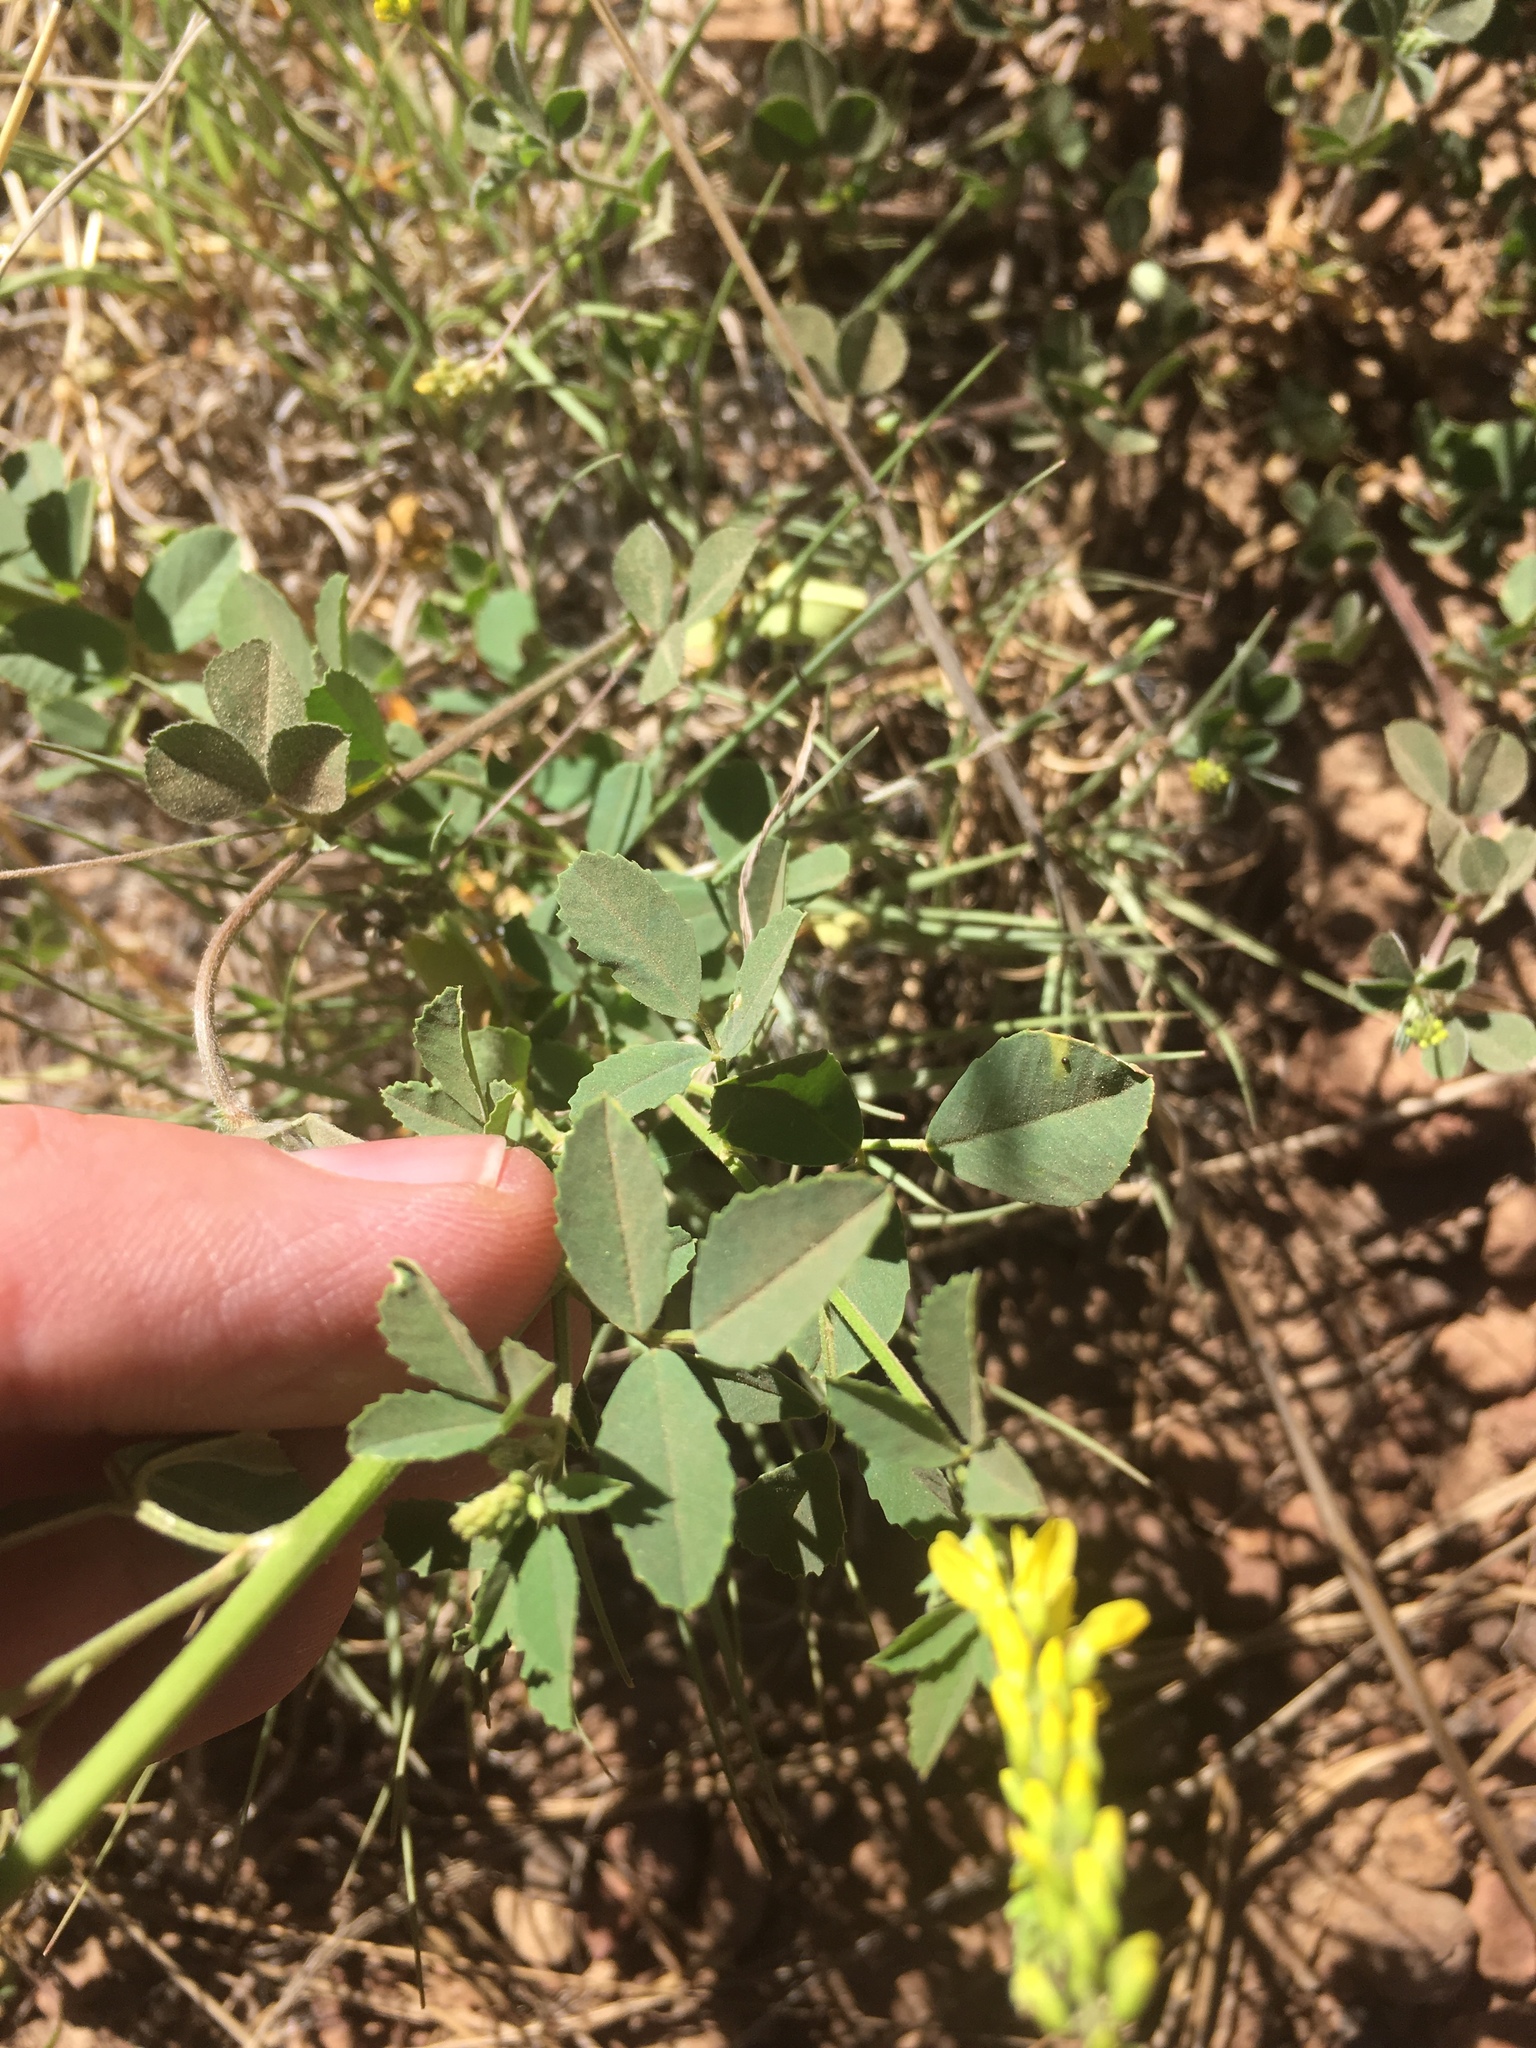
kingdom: Plantae
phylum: Tracheophyta
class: Magnoliopsida
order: Fabales
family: Fabaceae
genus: Melilotus
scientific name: Melilotus officinalis
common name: Sweetclover
